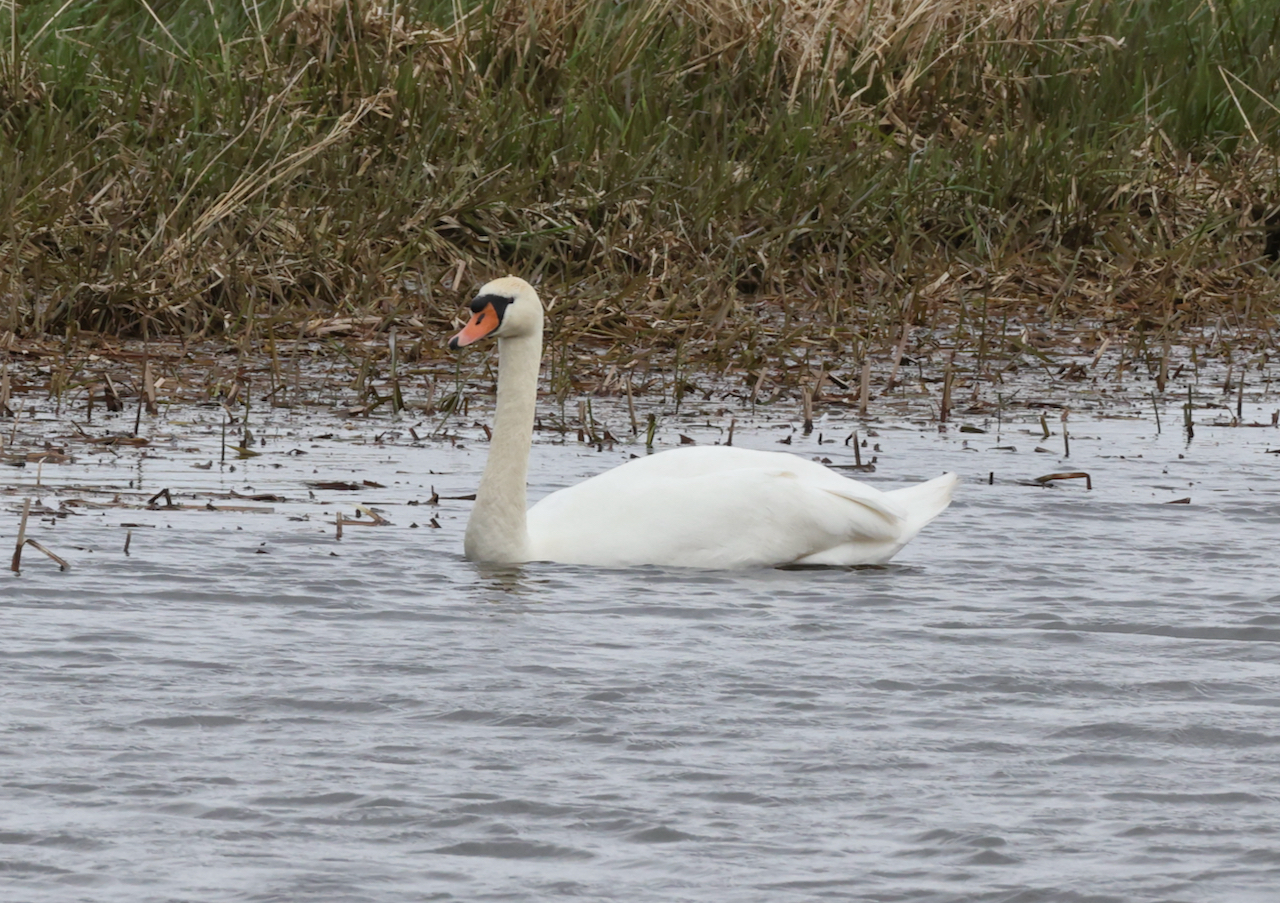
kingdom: Animalia
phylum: Chordata
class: Aves
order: Anseriformes
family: Anatidae
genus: Cygnus
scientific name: Cygnus olor
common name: Mute swan
